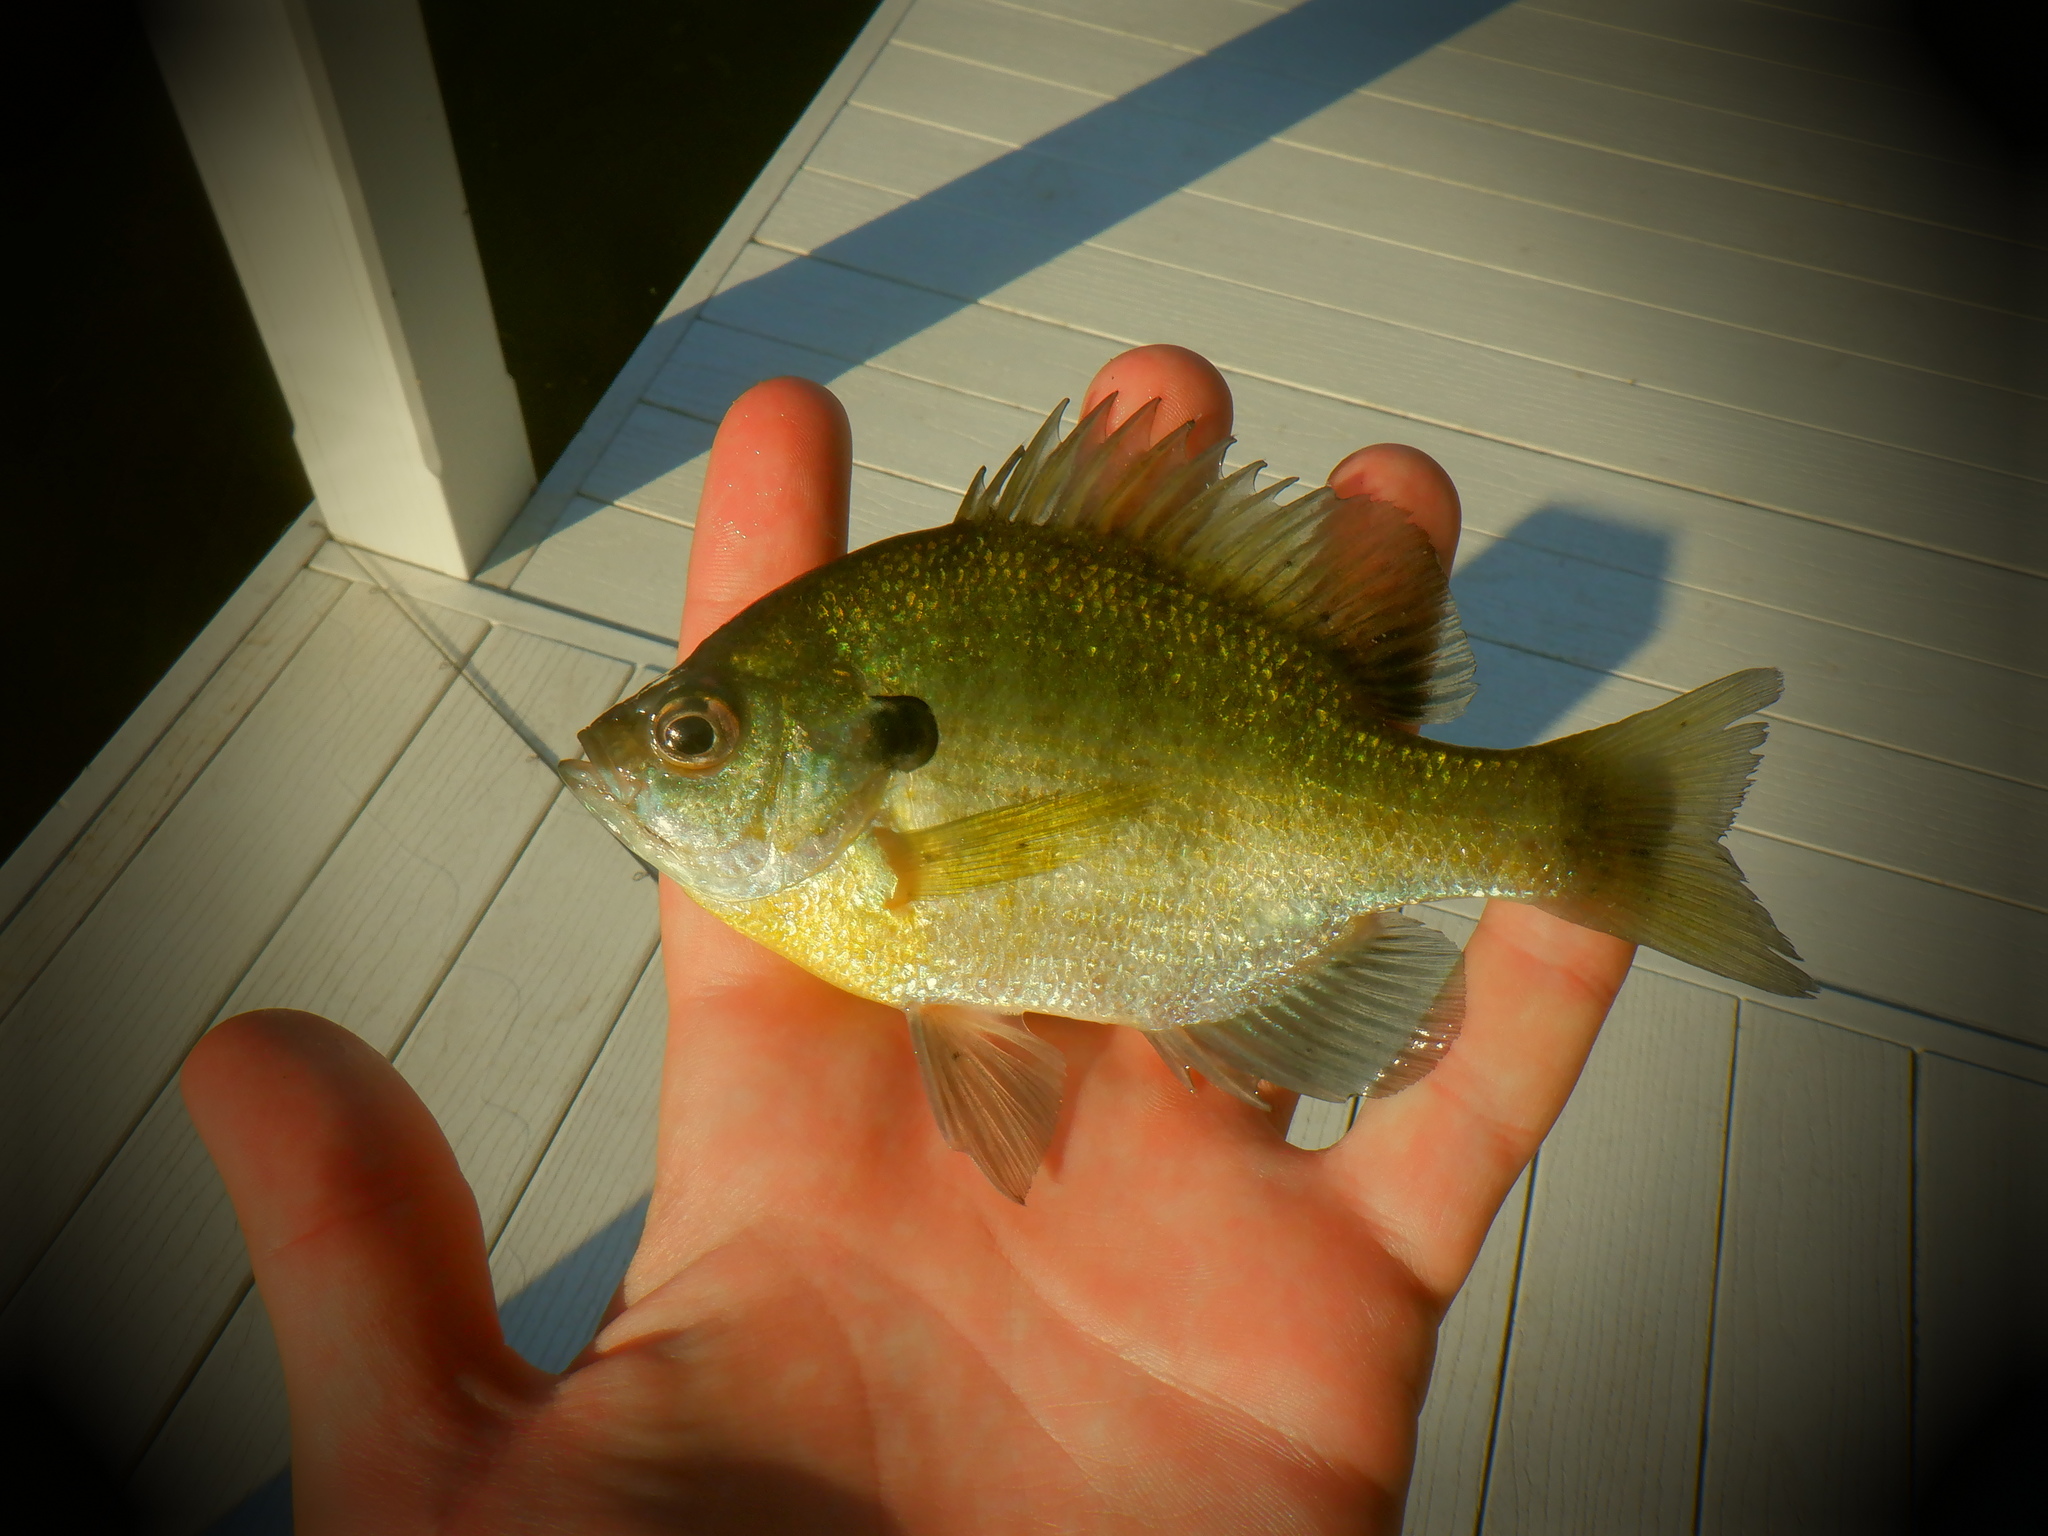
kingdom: Animalia
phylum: Chordata
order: Perciformes
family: Centrarchidae
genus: Lepomis
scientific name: Lepomis macrochirus
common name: Bluegill
